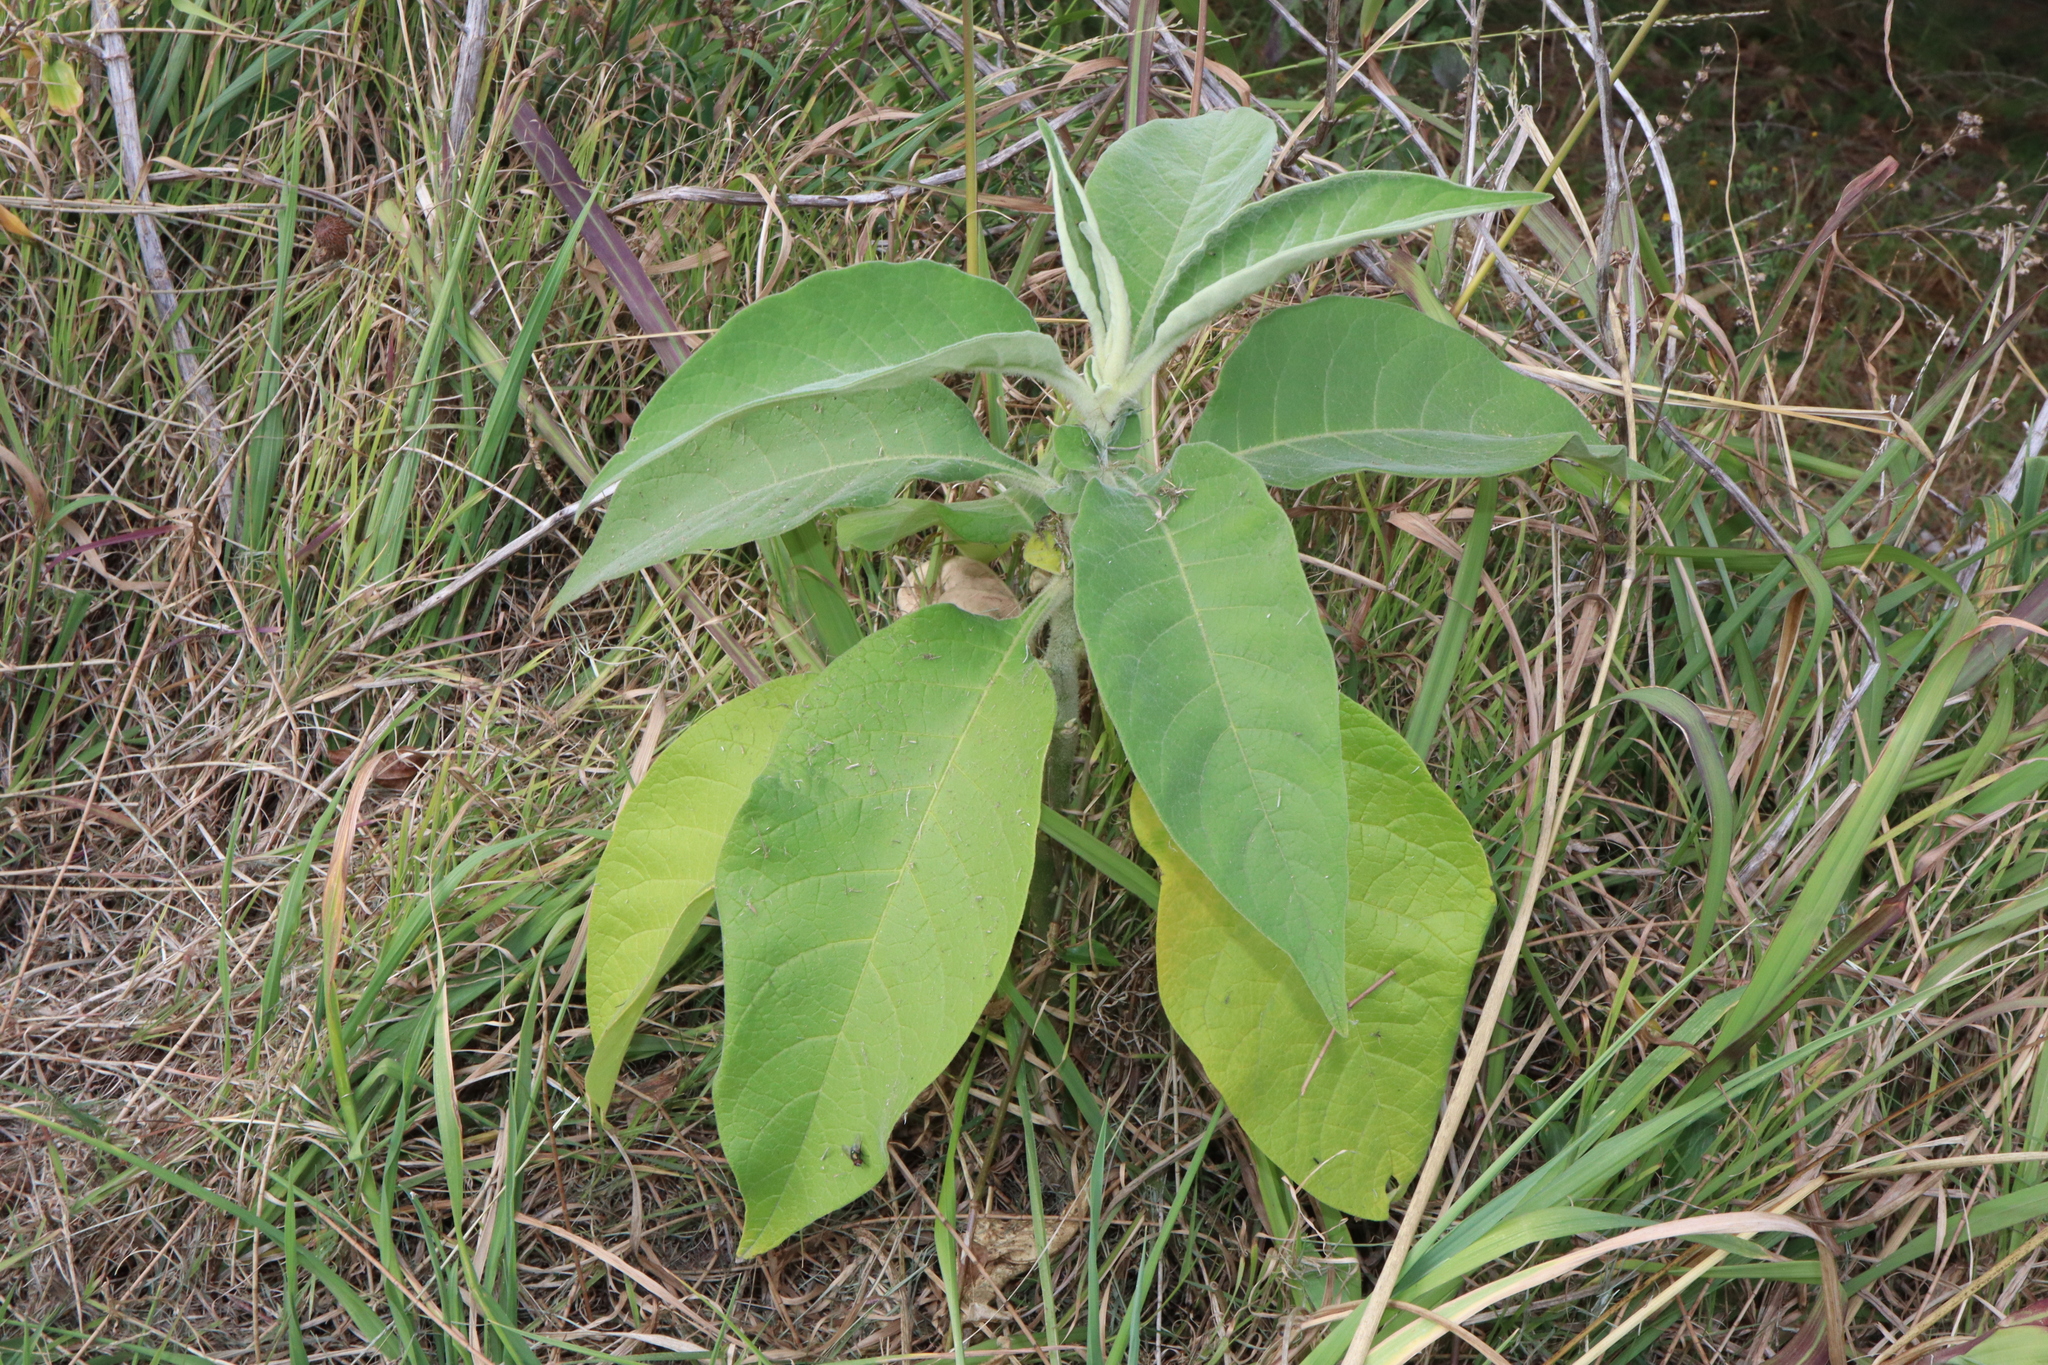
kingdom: Plantae
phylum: Tracheophyta
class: Magnoliopsida
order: Solanales
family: Solanaceae
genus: Solanum
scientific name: Solanum mauritianum
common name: Earleaf nightshade
